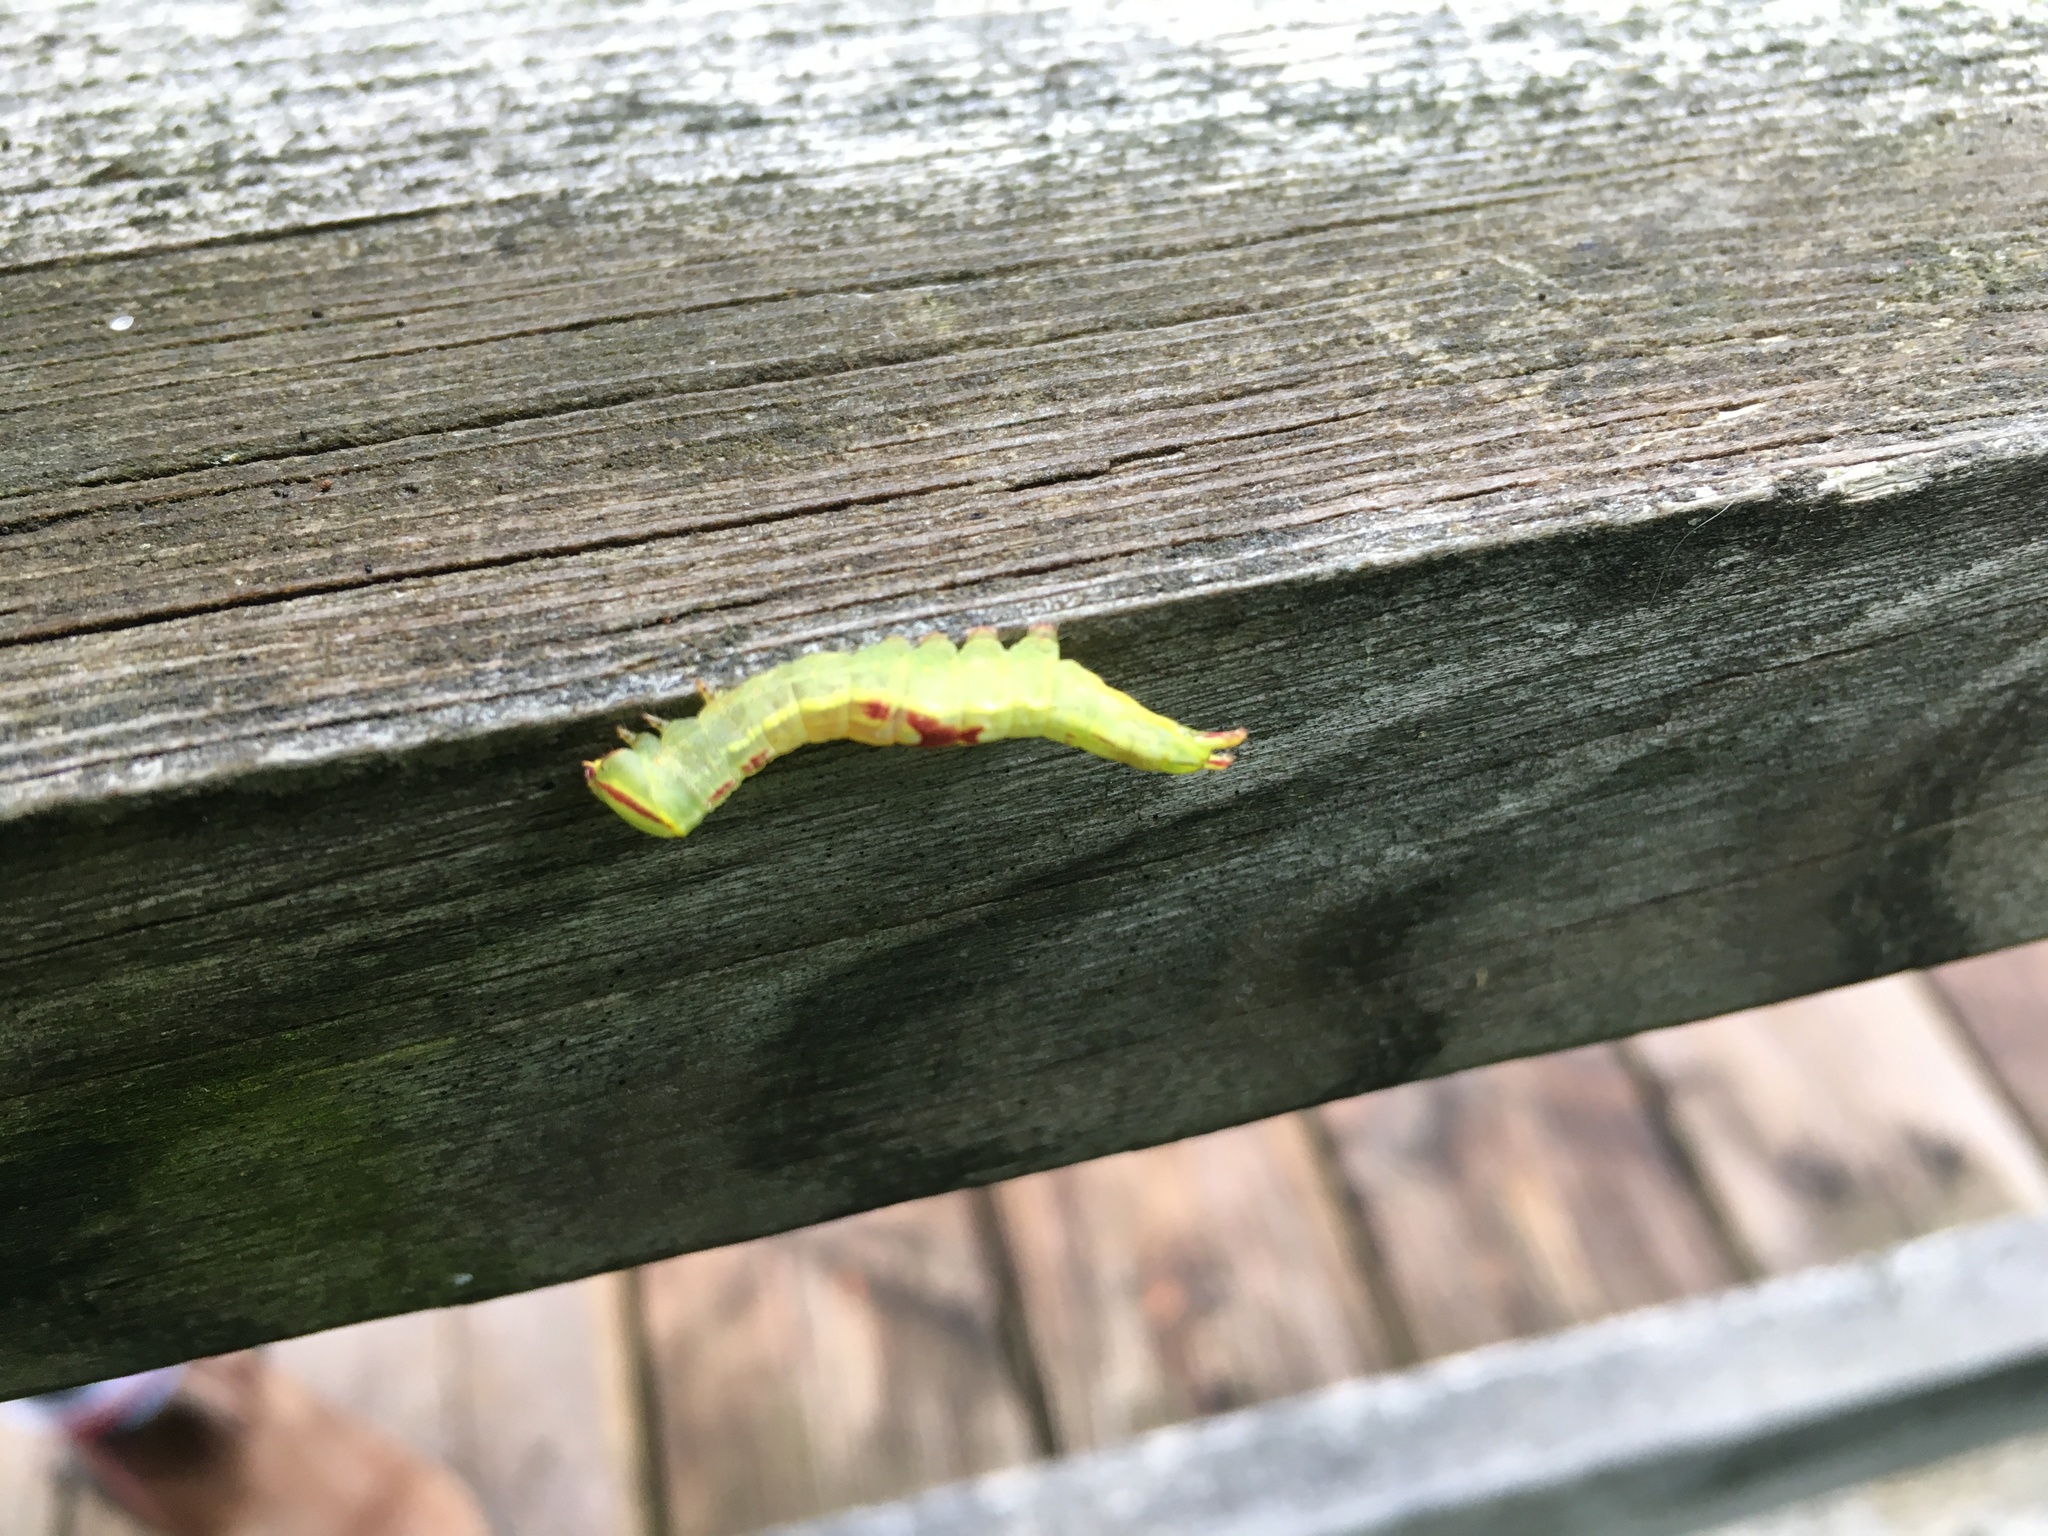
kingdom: Animalia
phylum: Arthropoda
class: Insecta
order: Lepidoptera
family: Notodontidae
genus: Disphragis
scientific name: Disphragis Cecrita guttivitta
